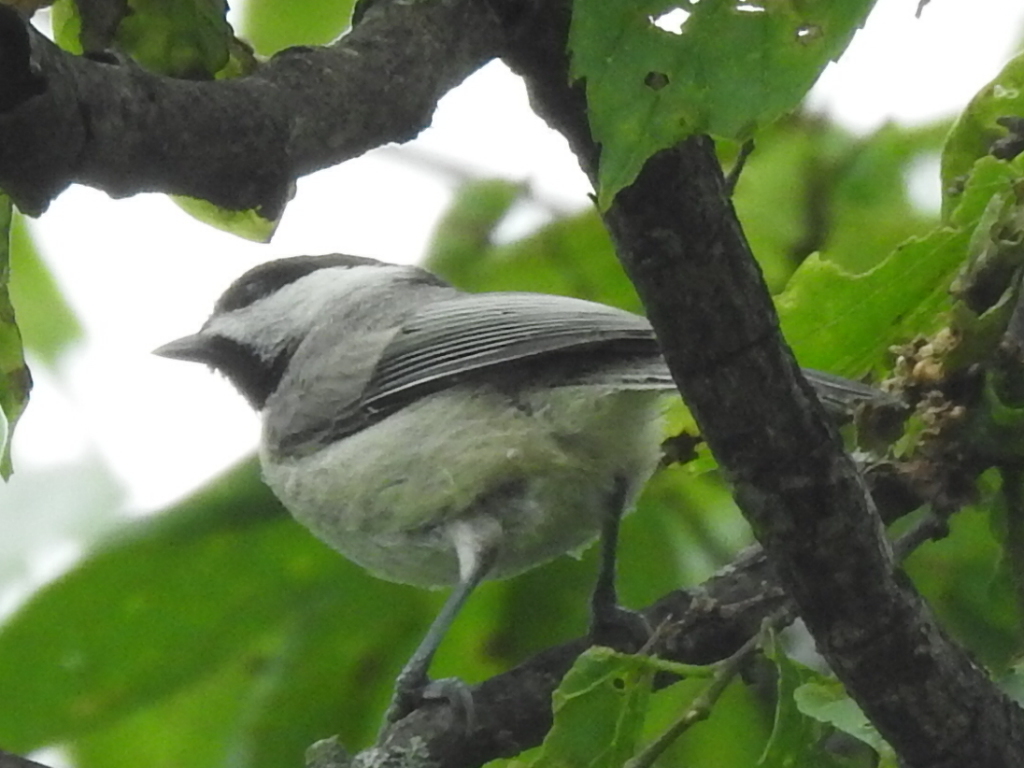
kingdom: Animalia
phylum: Chordata
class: Aves
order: Passeriformes
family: Paridae
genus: Poecile
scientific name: Poecile carolinensis
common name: Carolina chickadee
